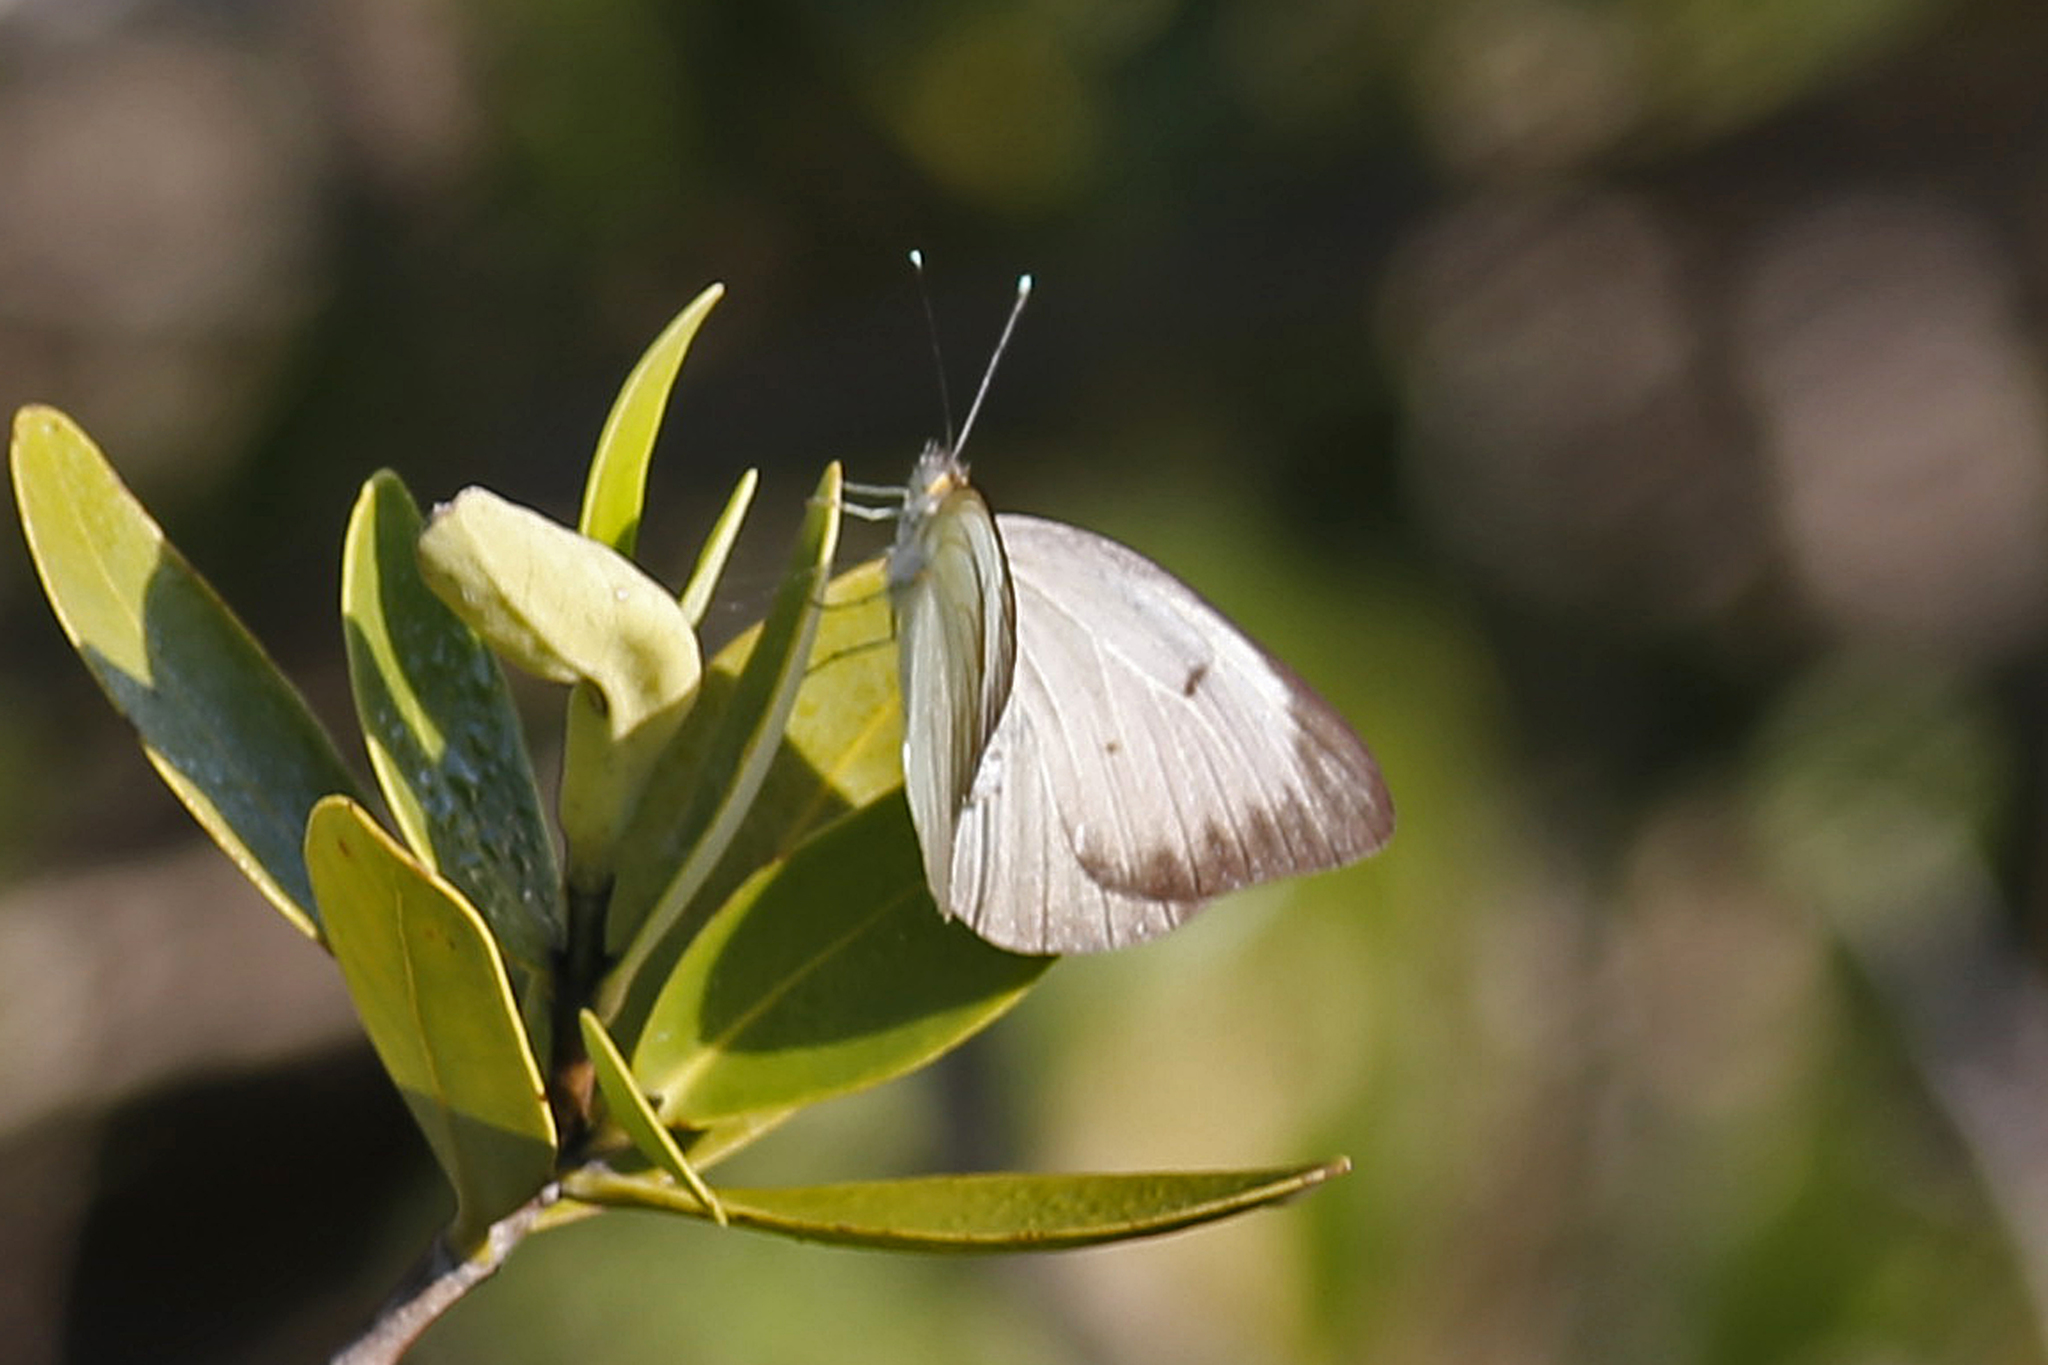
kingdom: Animalia
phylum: Arthropoda
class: Insecta
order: Lepidoptera
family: Pieridae
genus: Ascia
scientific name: Ascia monuste
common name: Great southern white
